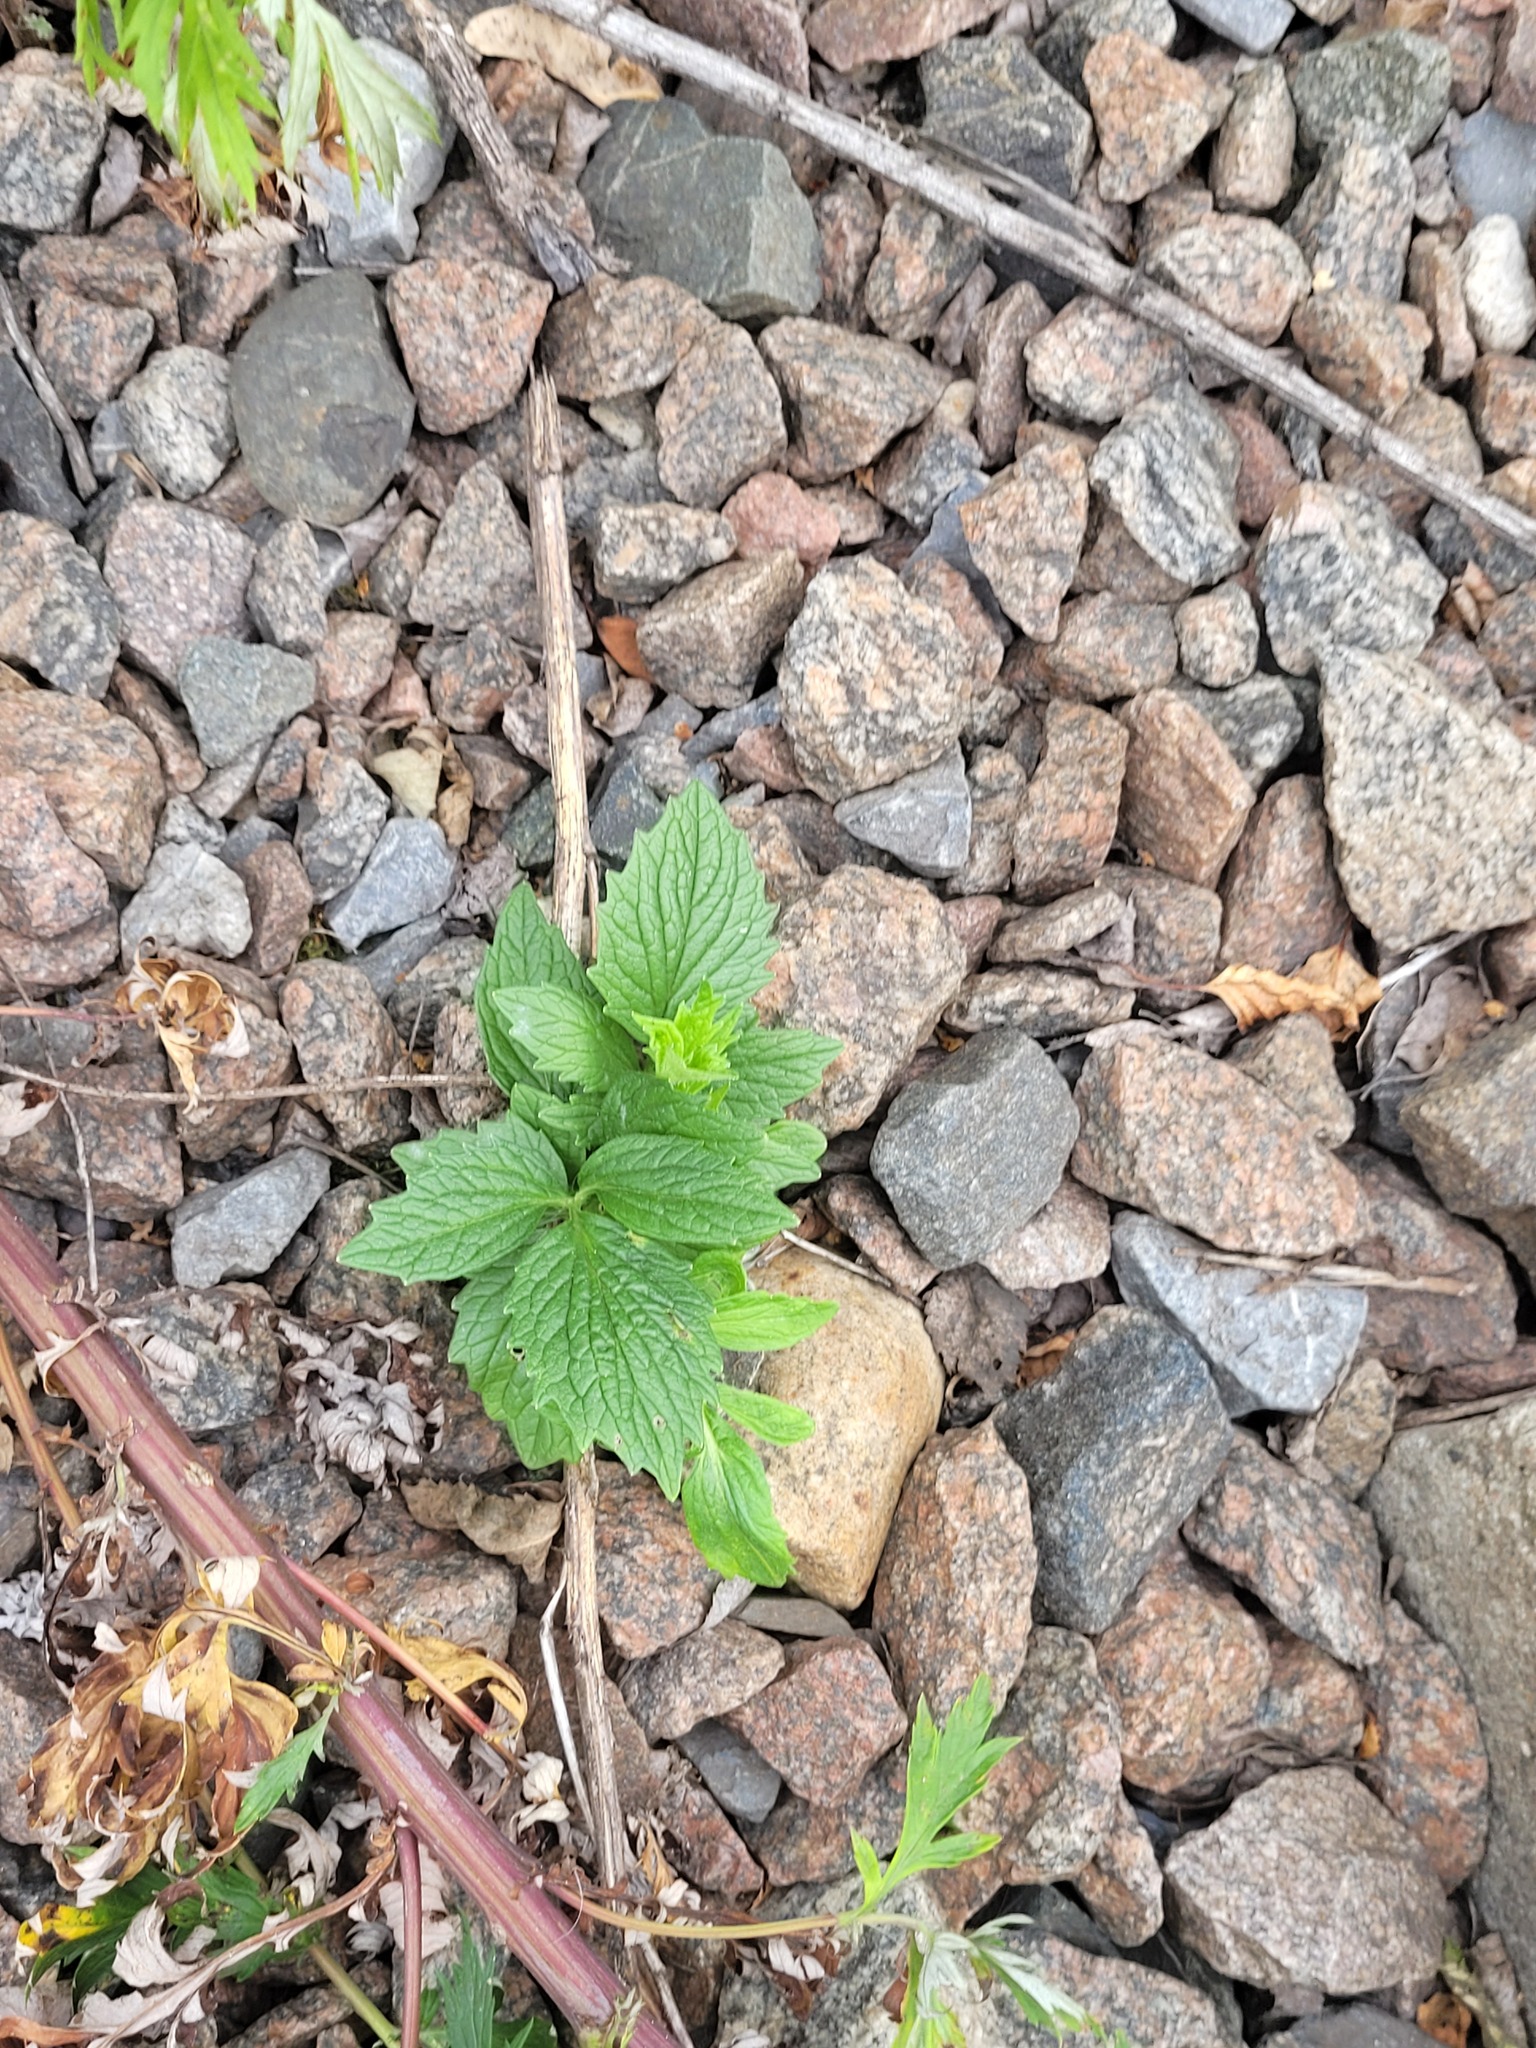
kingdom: Plantae
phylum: Tracheophyta
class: Magnoliopsida
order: Dipsacales
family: Caprifoliaceae
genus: Valeriana
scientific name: Valeriana officinalis
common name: Common valerian
